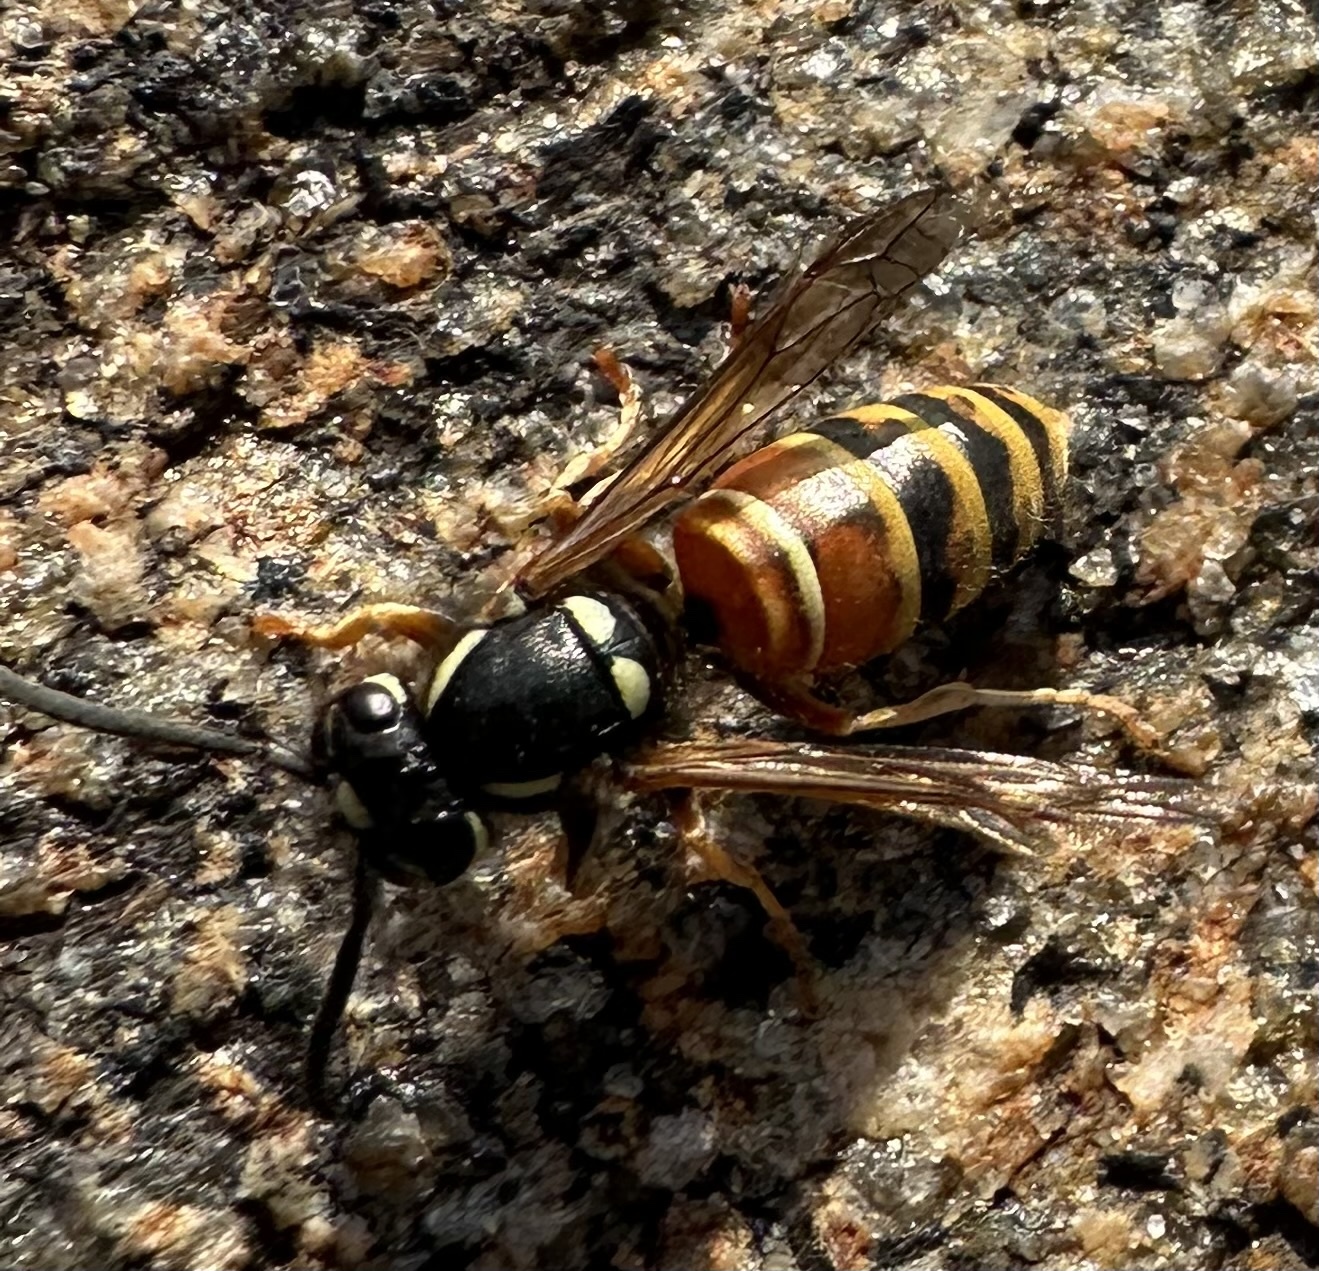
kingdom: Animalia
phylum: Arthropoda
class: Insecta
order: Hymenoptera
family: Vespidae
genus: Vespula
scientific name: Vespula rufa
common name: Red wasp
